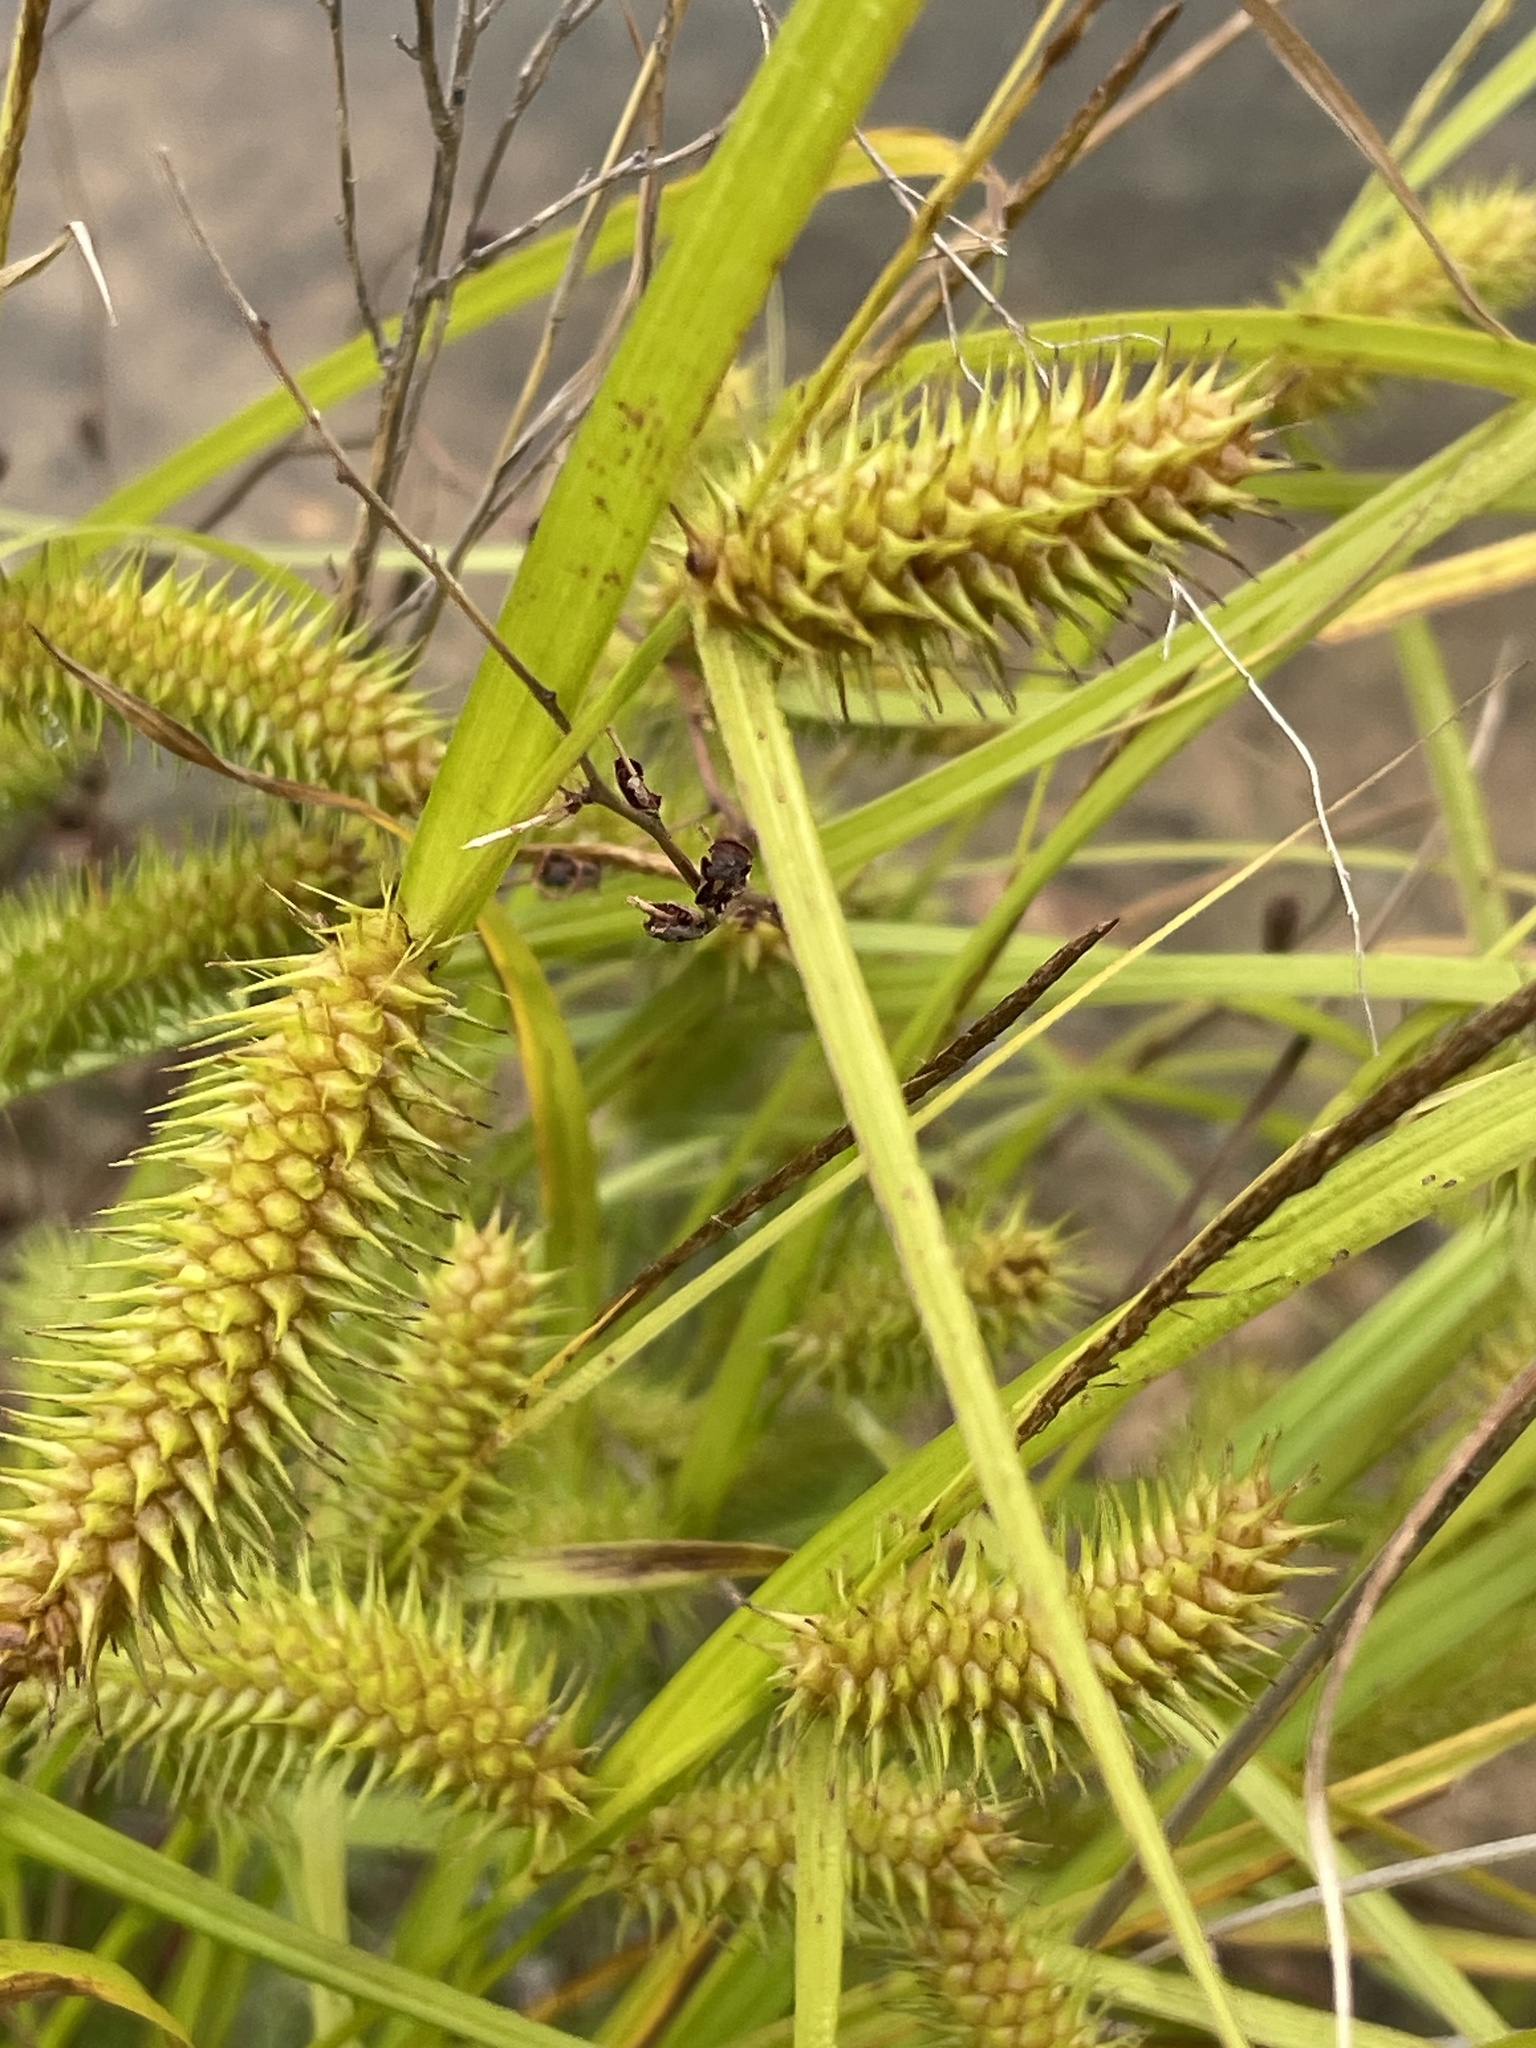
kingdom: Plantae
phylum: Tracheophyta
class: Liliopsida
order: Poales
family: Cyperaceae
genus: Carex
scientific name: Carex lurida
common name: Sallow sedge
